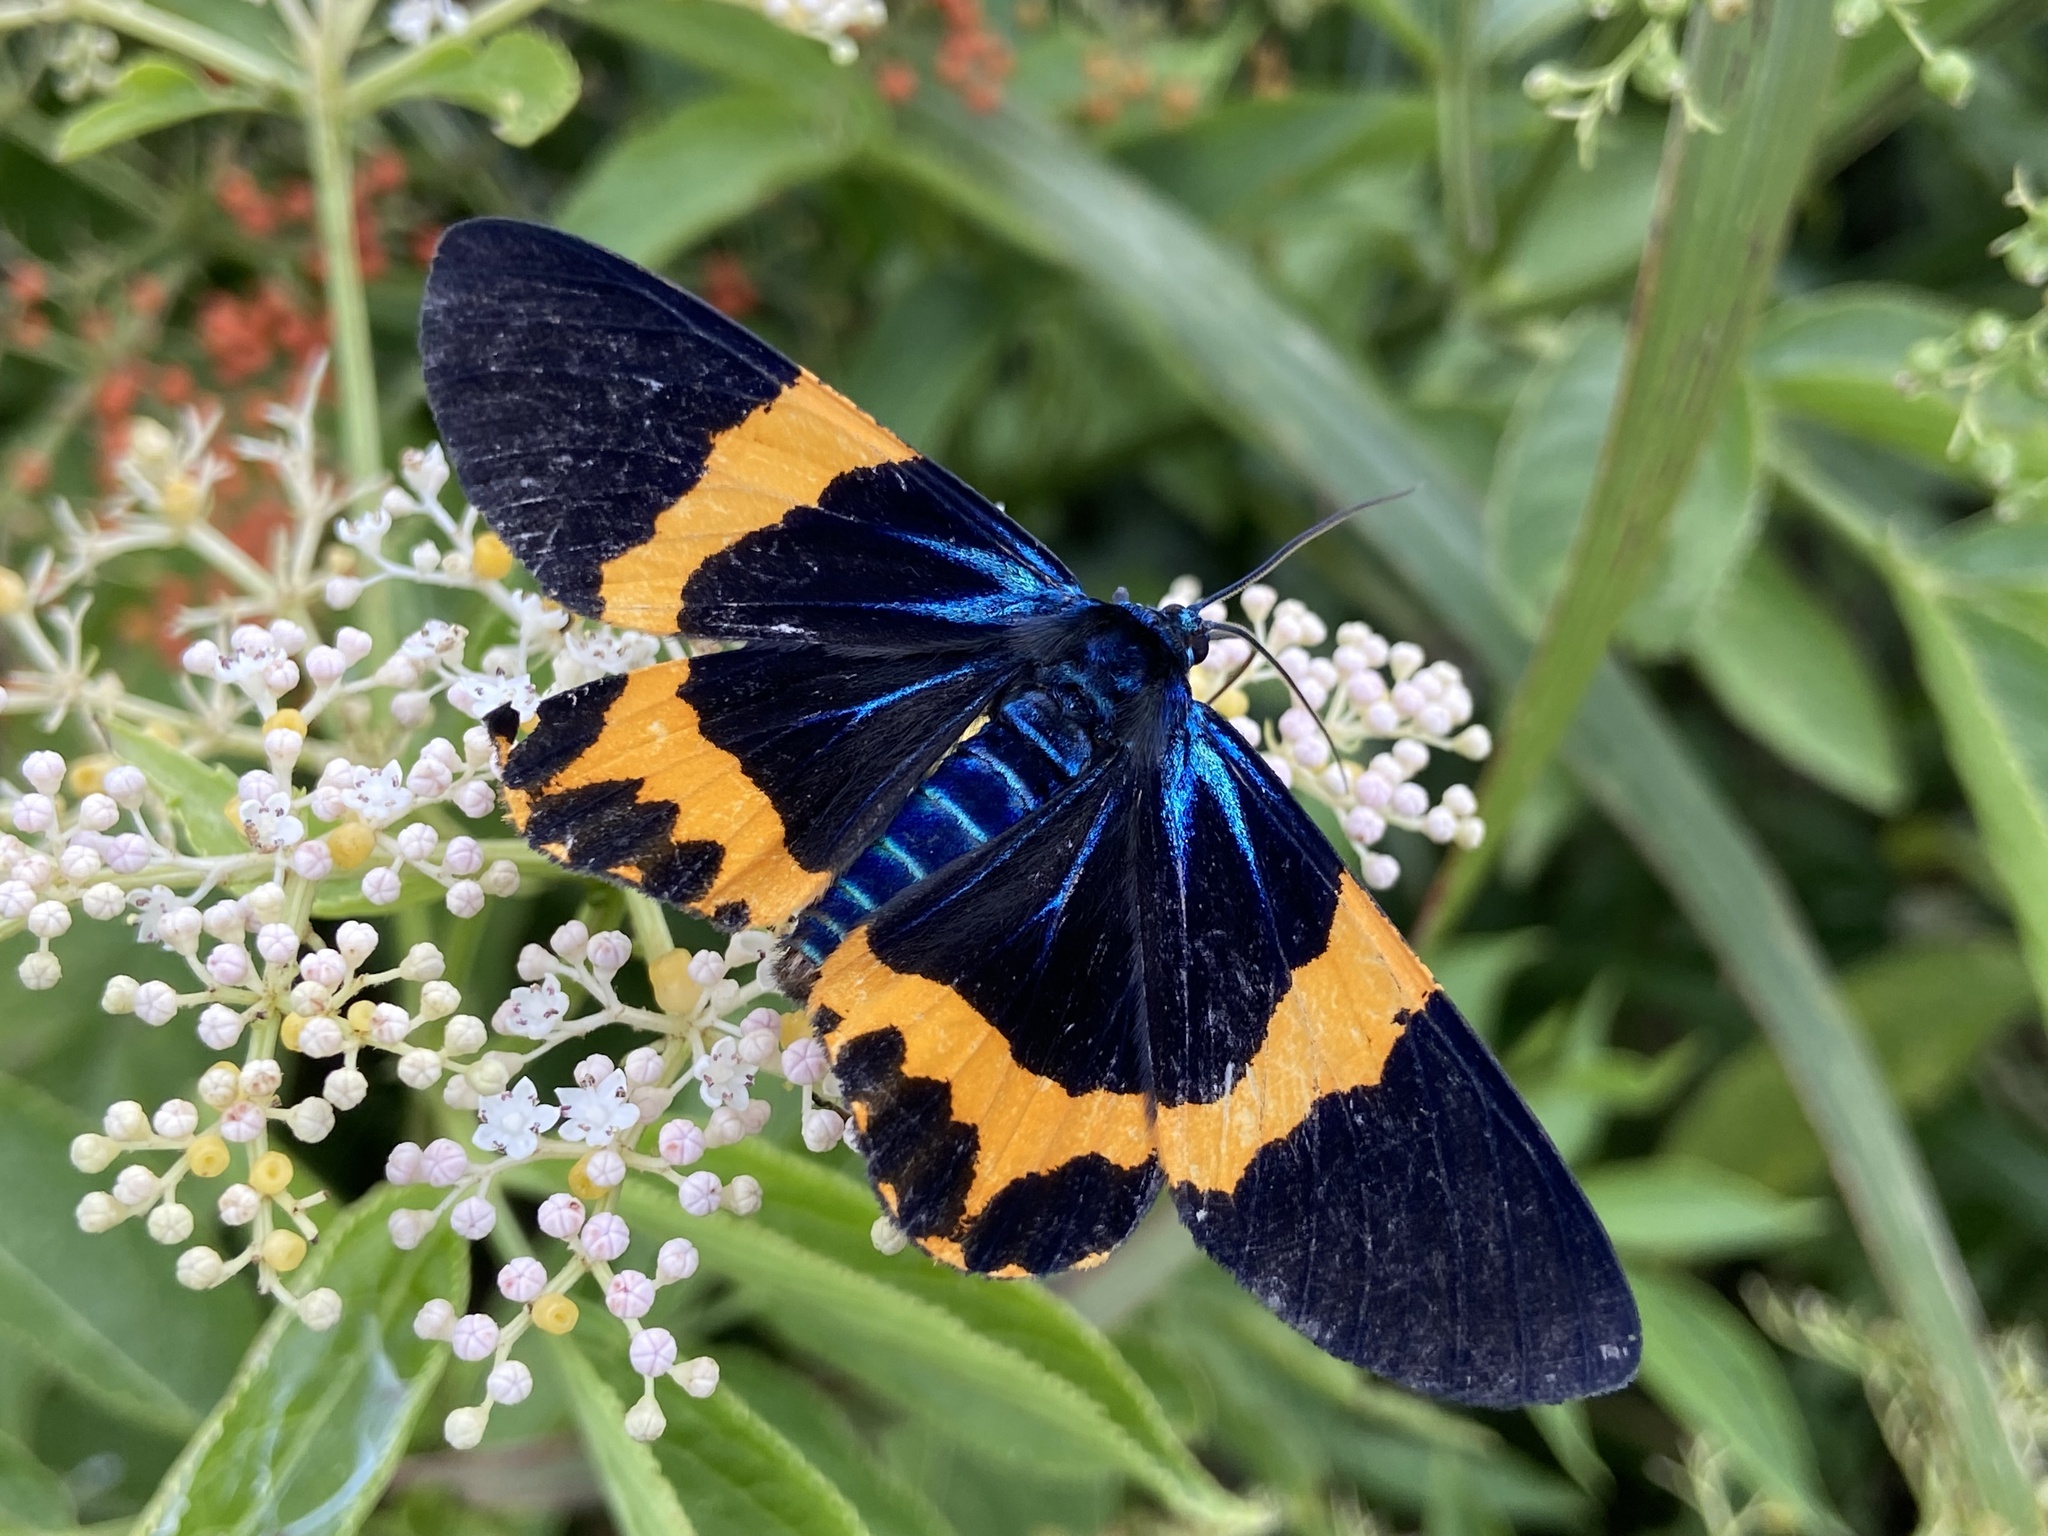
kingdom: Animalia
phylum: Arthropoda
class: Insecta
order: Lepidoptera
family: Geometridae
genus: Milionia
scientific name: Milionia basalis
